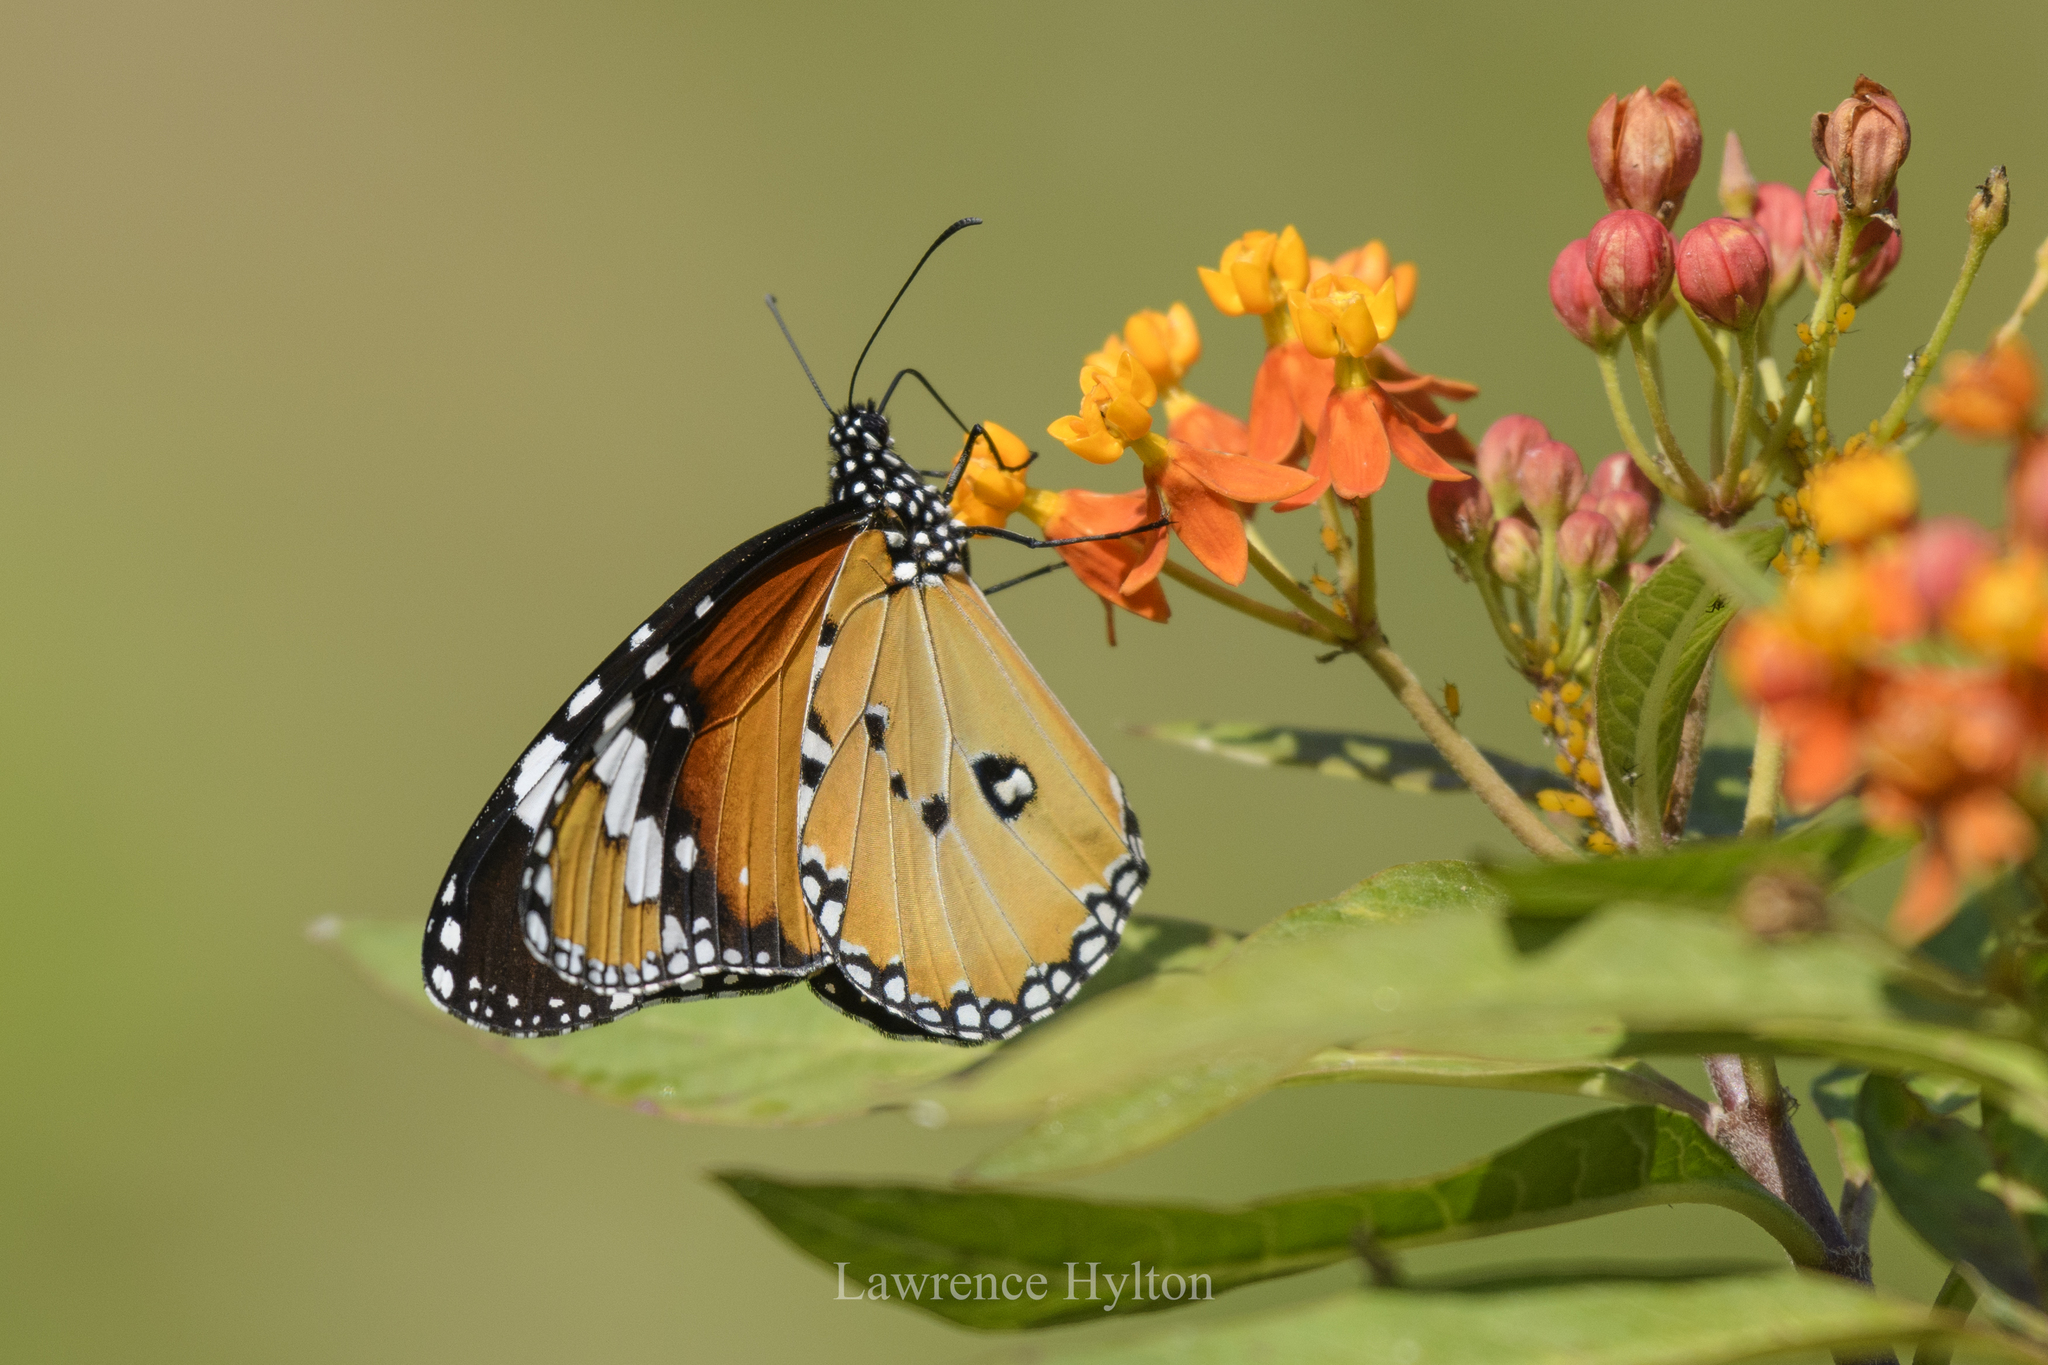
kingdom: Animalia
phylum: Arthropoda
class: Insecta
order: Lepidoptera
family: Nymphalidae
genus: Danaus
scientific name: Danaus chrysippus
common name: Plain tiger
